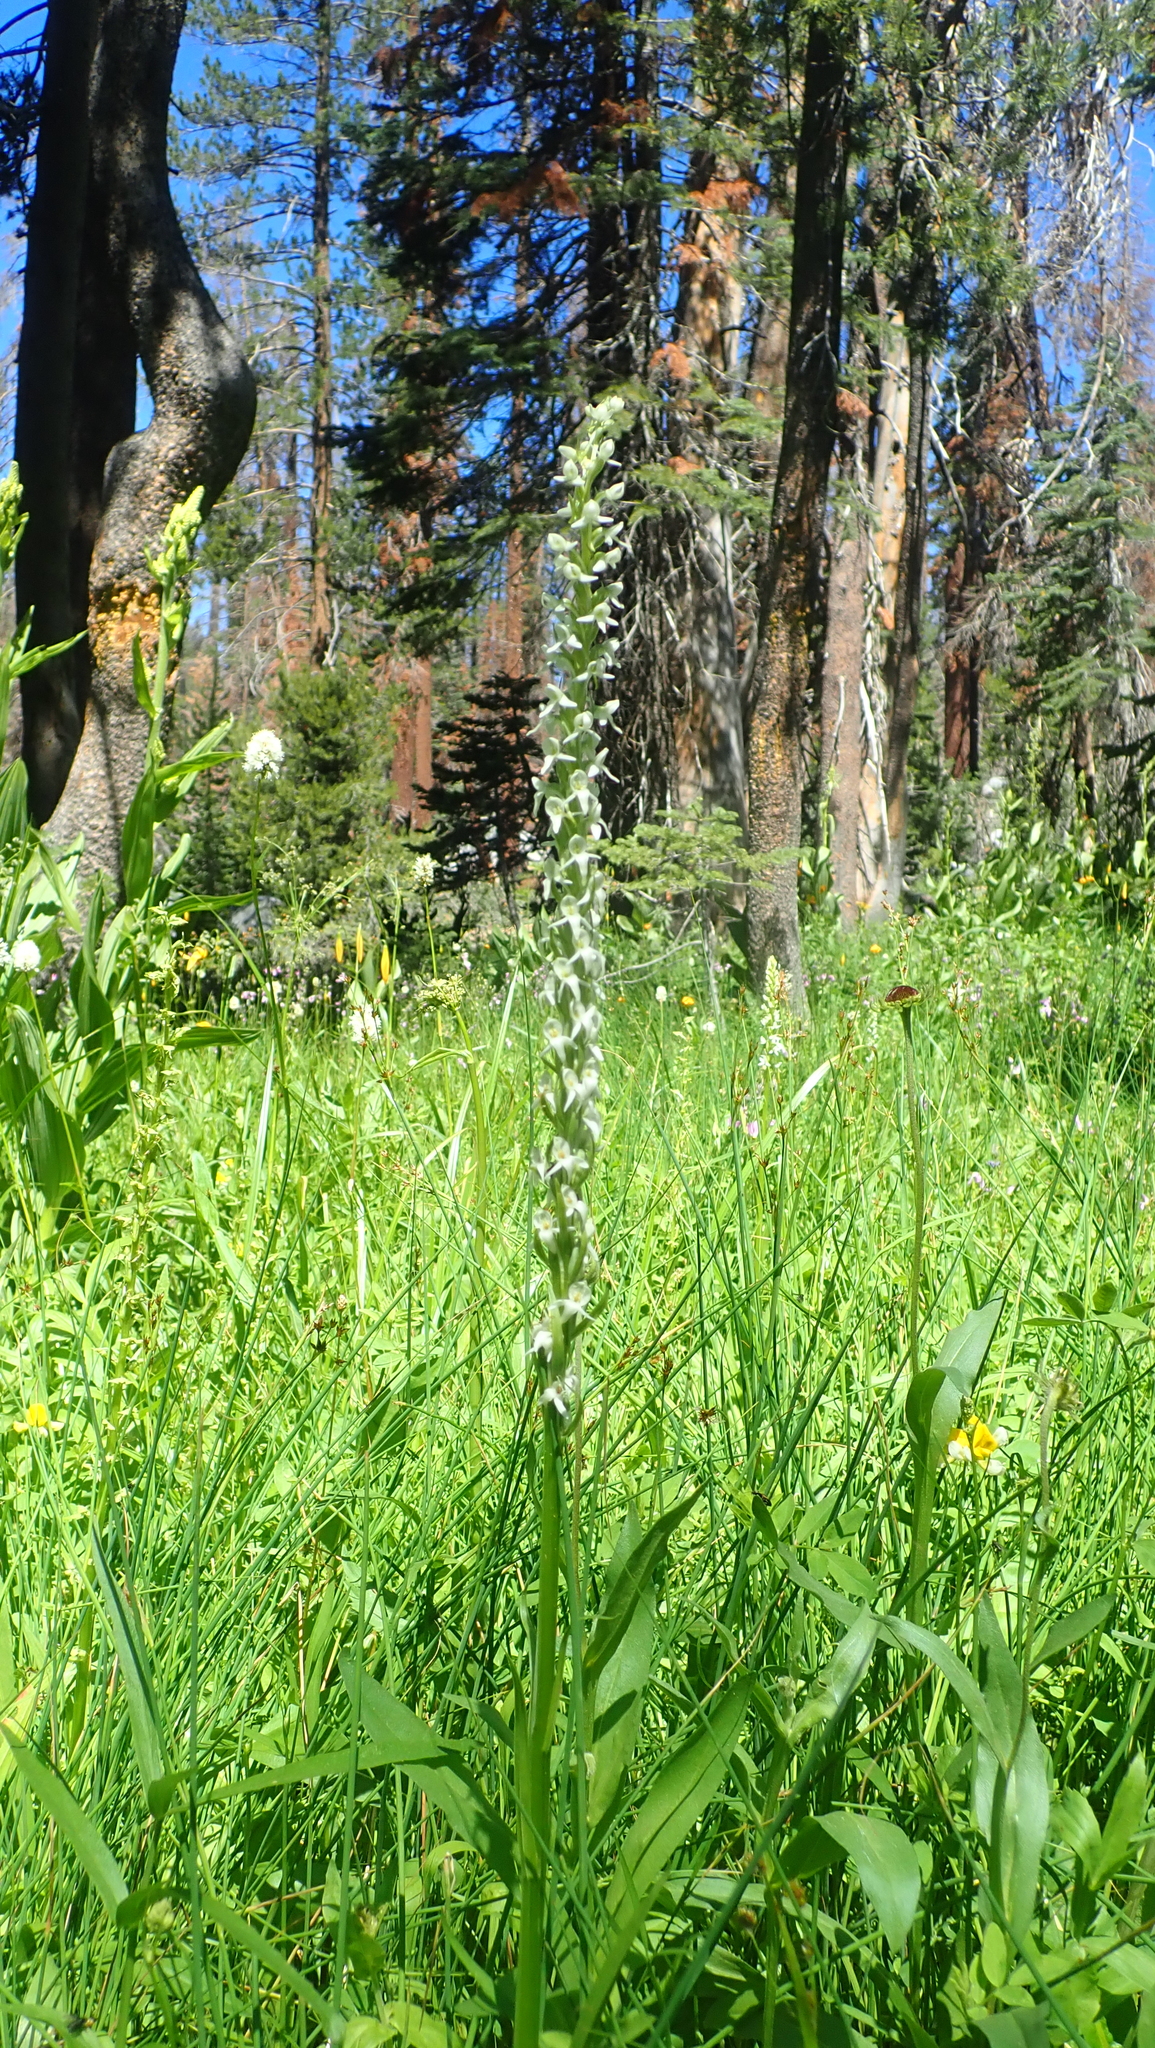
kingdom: Plantae
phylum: Tracheophyta
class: Liliopsida
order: Asparagales
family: Orchidaceae
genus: Platanthera
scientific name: Platanthera dilatata
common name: Bog candles
